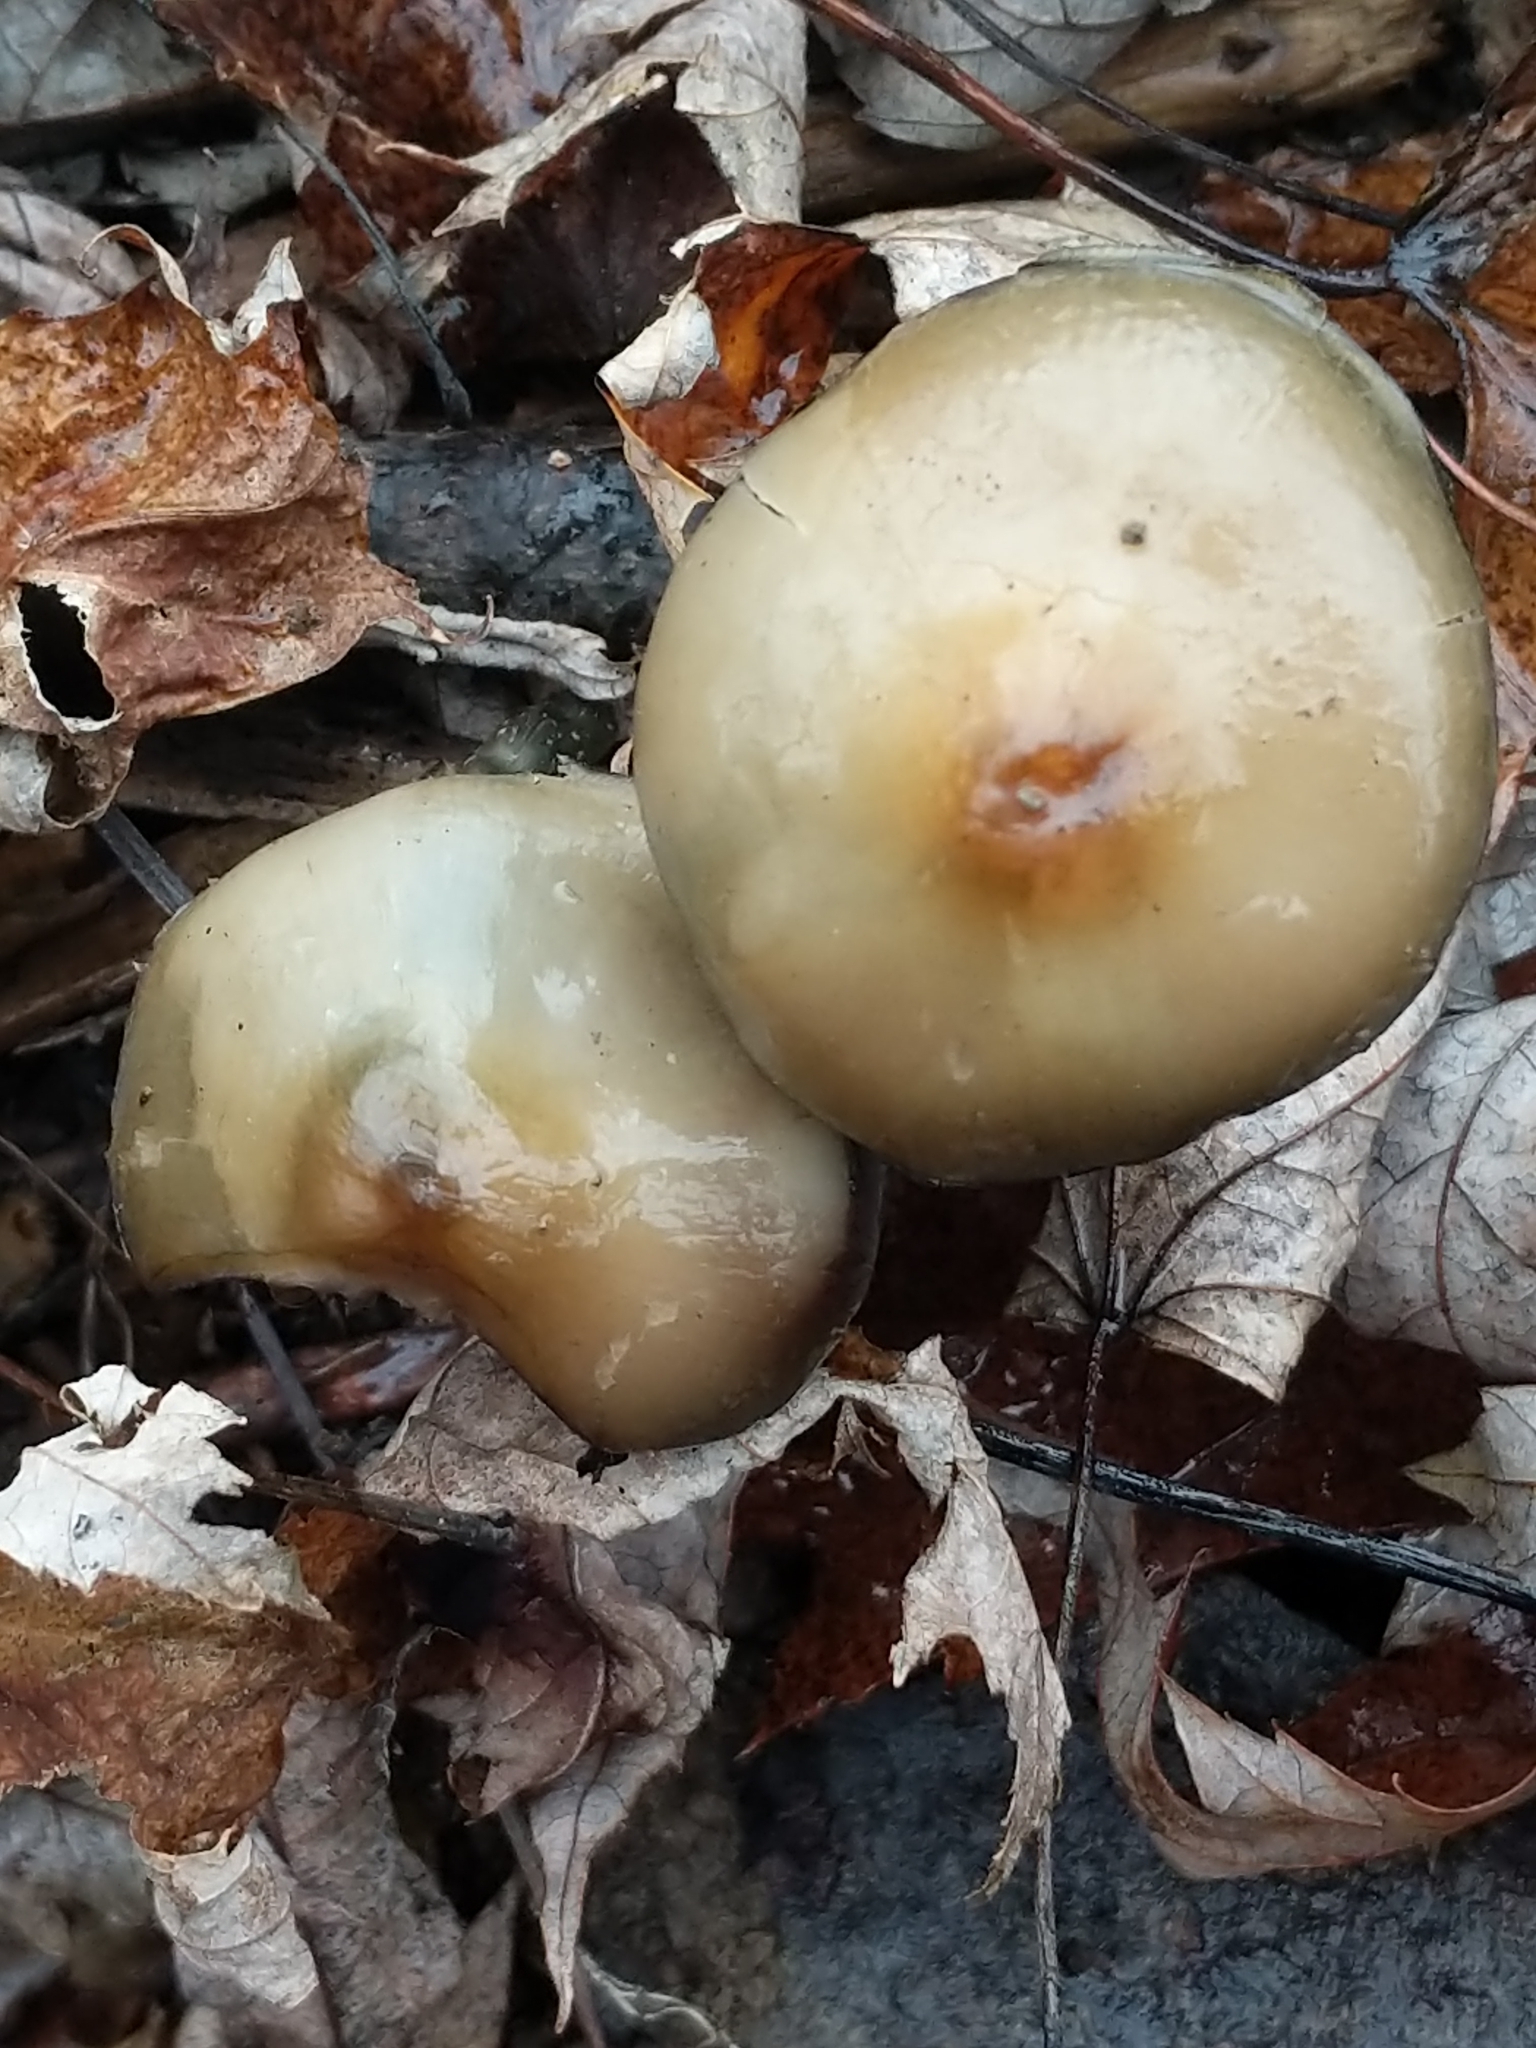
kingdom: Fungi
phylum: Basidiomycota
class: Agaricomycetes
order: Agaricales
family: Hymenogastraceae
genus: Psilocybe
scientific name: Psilocybe ovoideocystidiata
